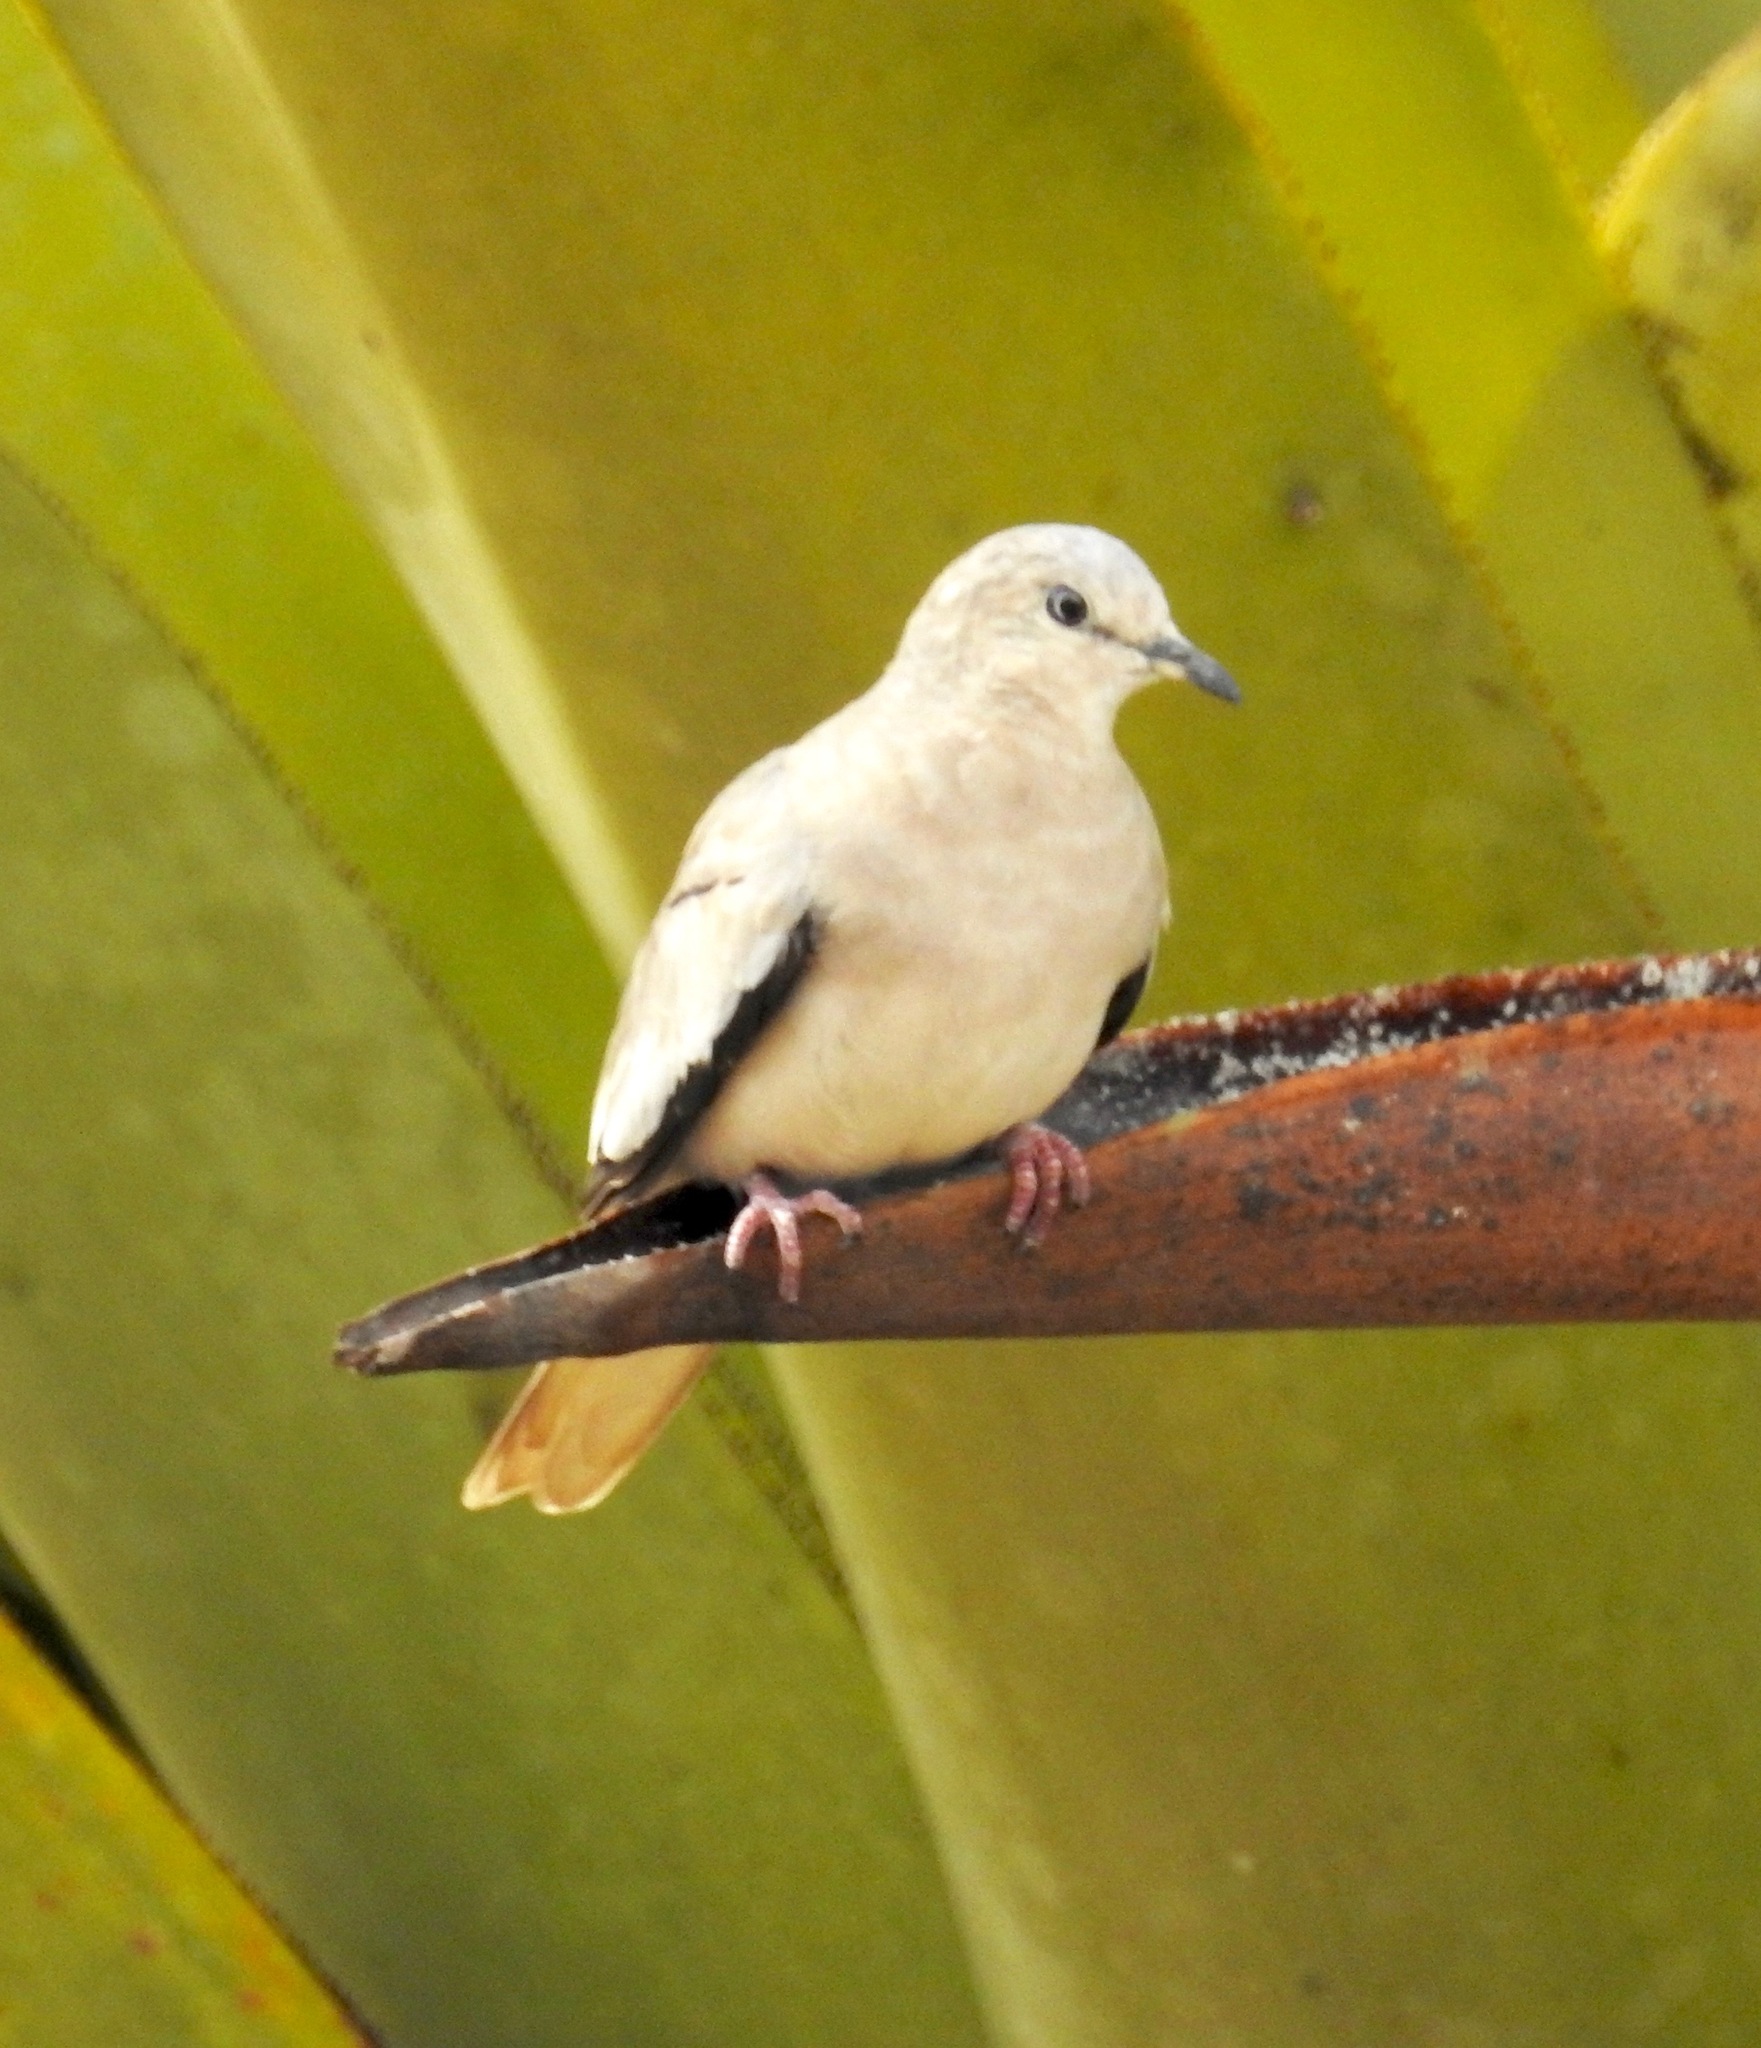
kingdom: Animalia
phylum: Chordata
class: Aves
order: Columbiformes
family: Columbidae
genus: Columbina
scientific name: Columbina picui
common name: Picui ground dove
